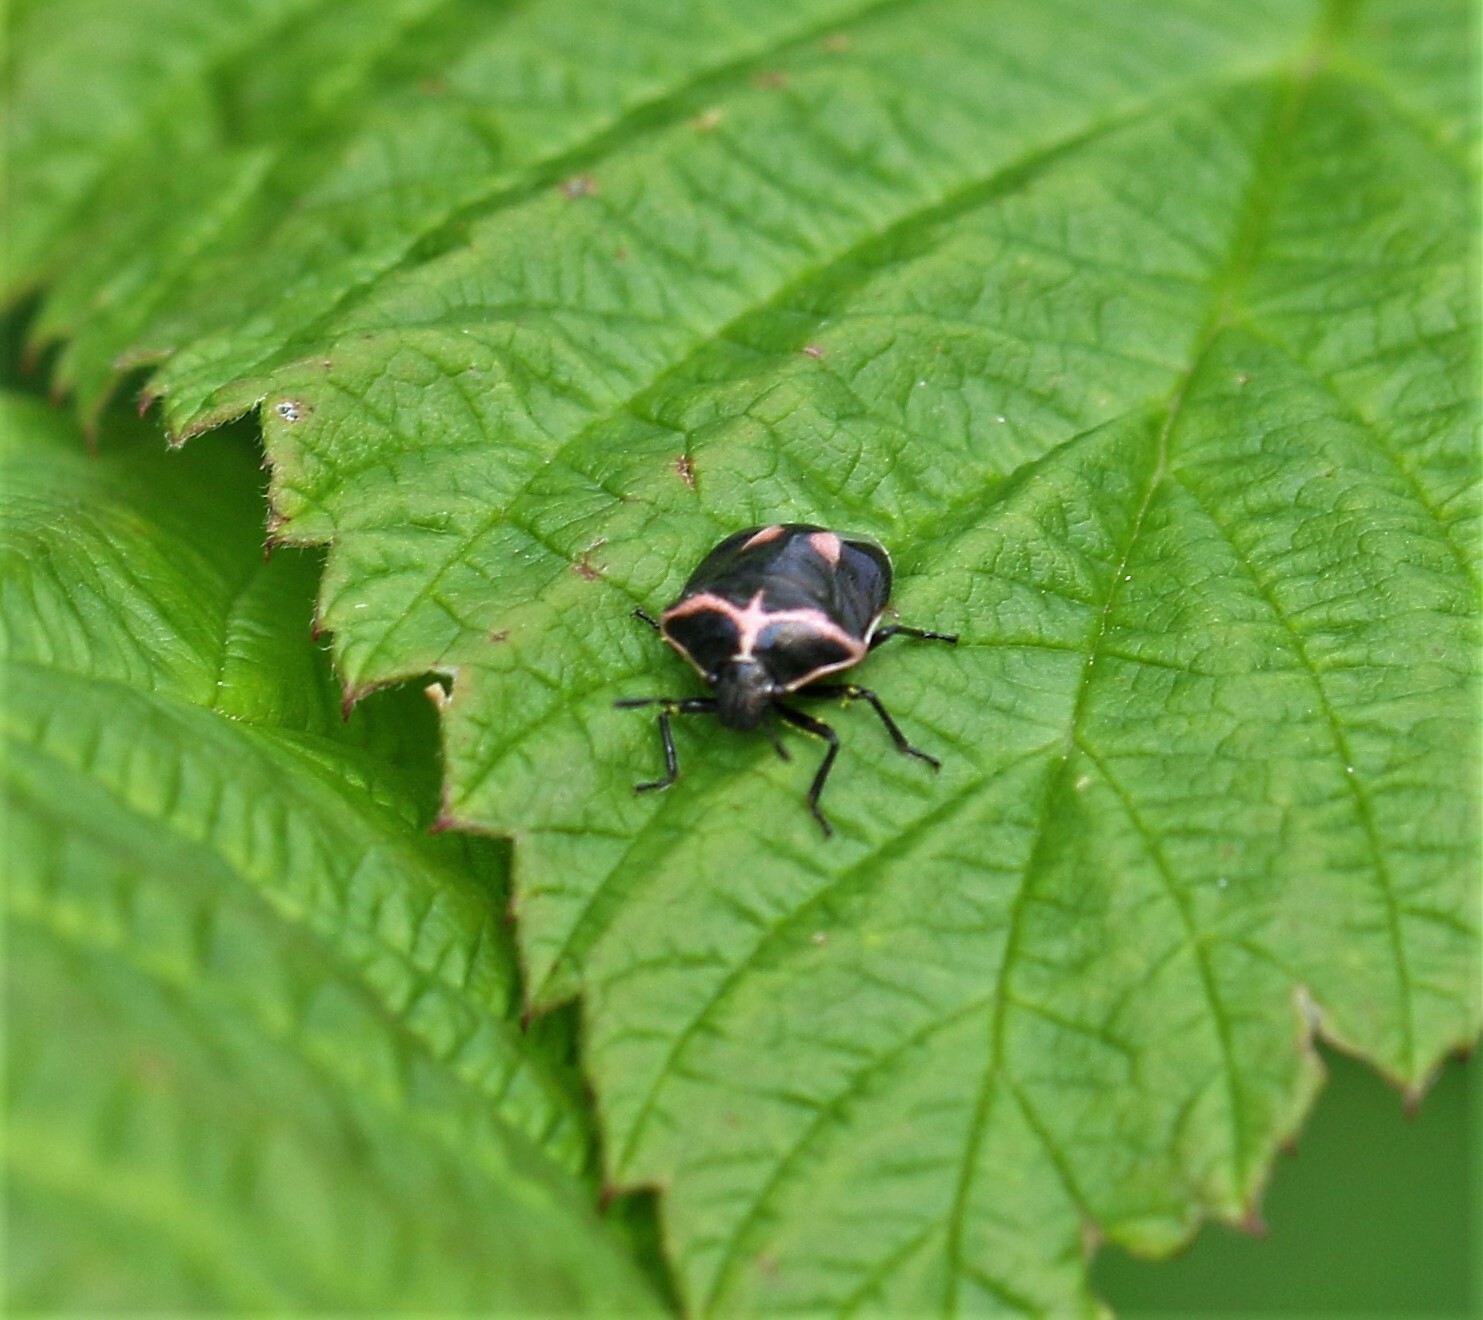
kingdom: Animalia
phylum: Arthropoda
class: Insecta
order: Hemiptera
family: Pentatomidae
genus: Cosmopepla
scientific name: Cosmopepla lintneriana
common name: Twice-stabbed stink bug
